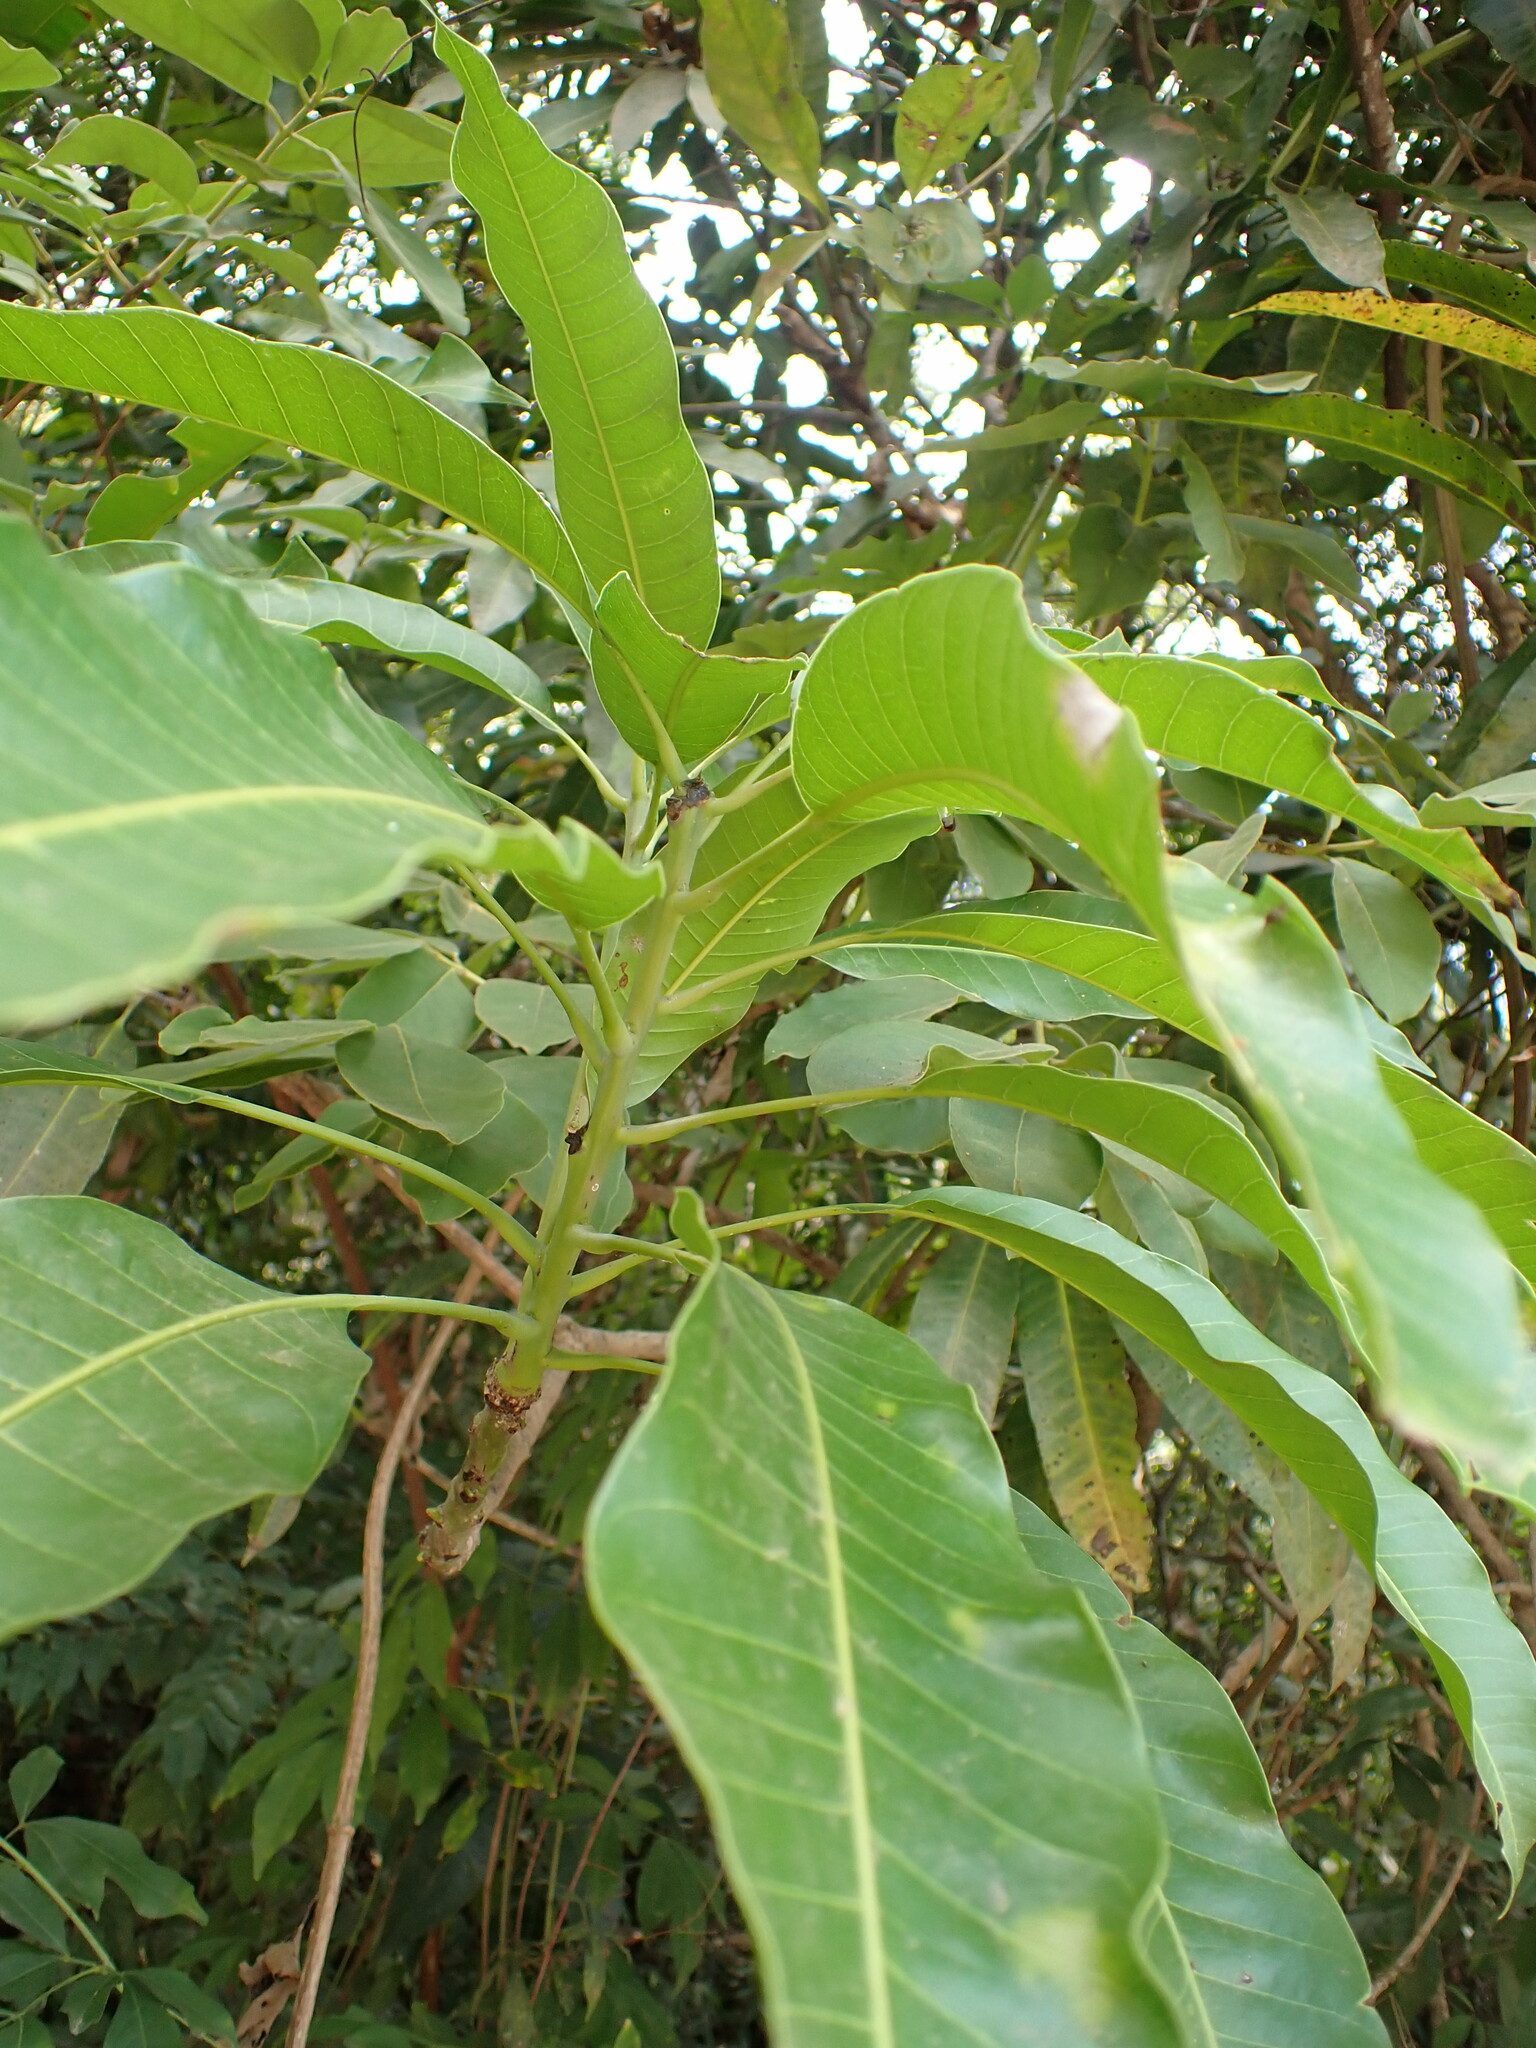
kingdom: Plantae
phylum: Tracheophyta
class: Magnoliopsida
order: Sapindales
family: Anacardiaceae
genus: Mangifera
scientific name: Mangifera indica
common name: Mango
